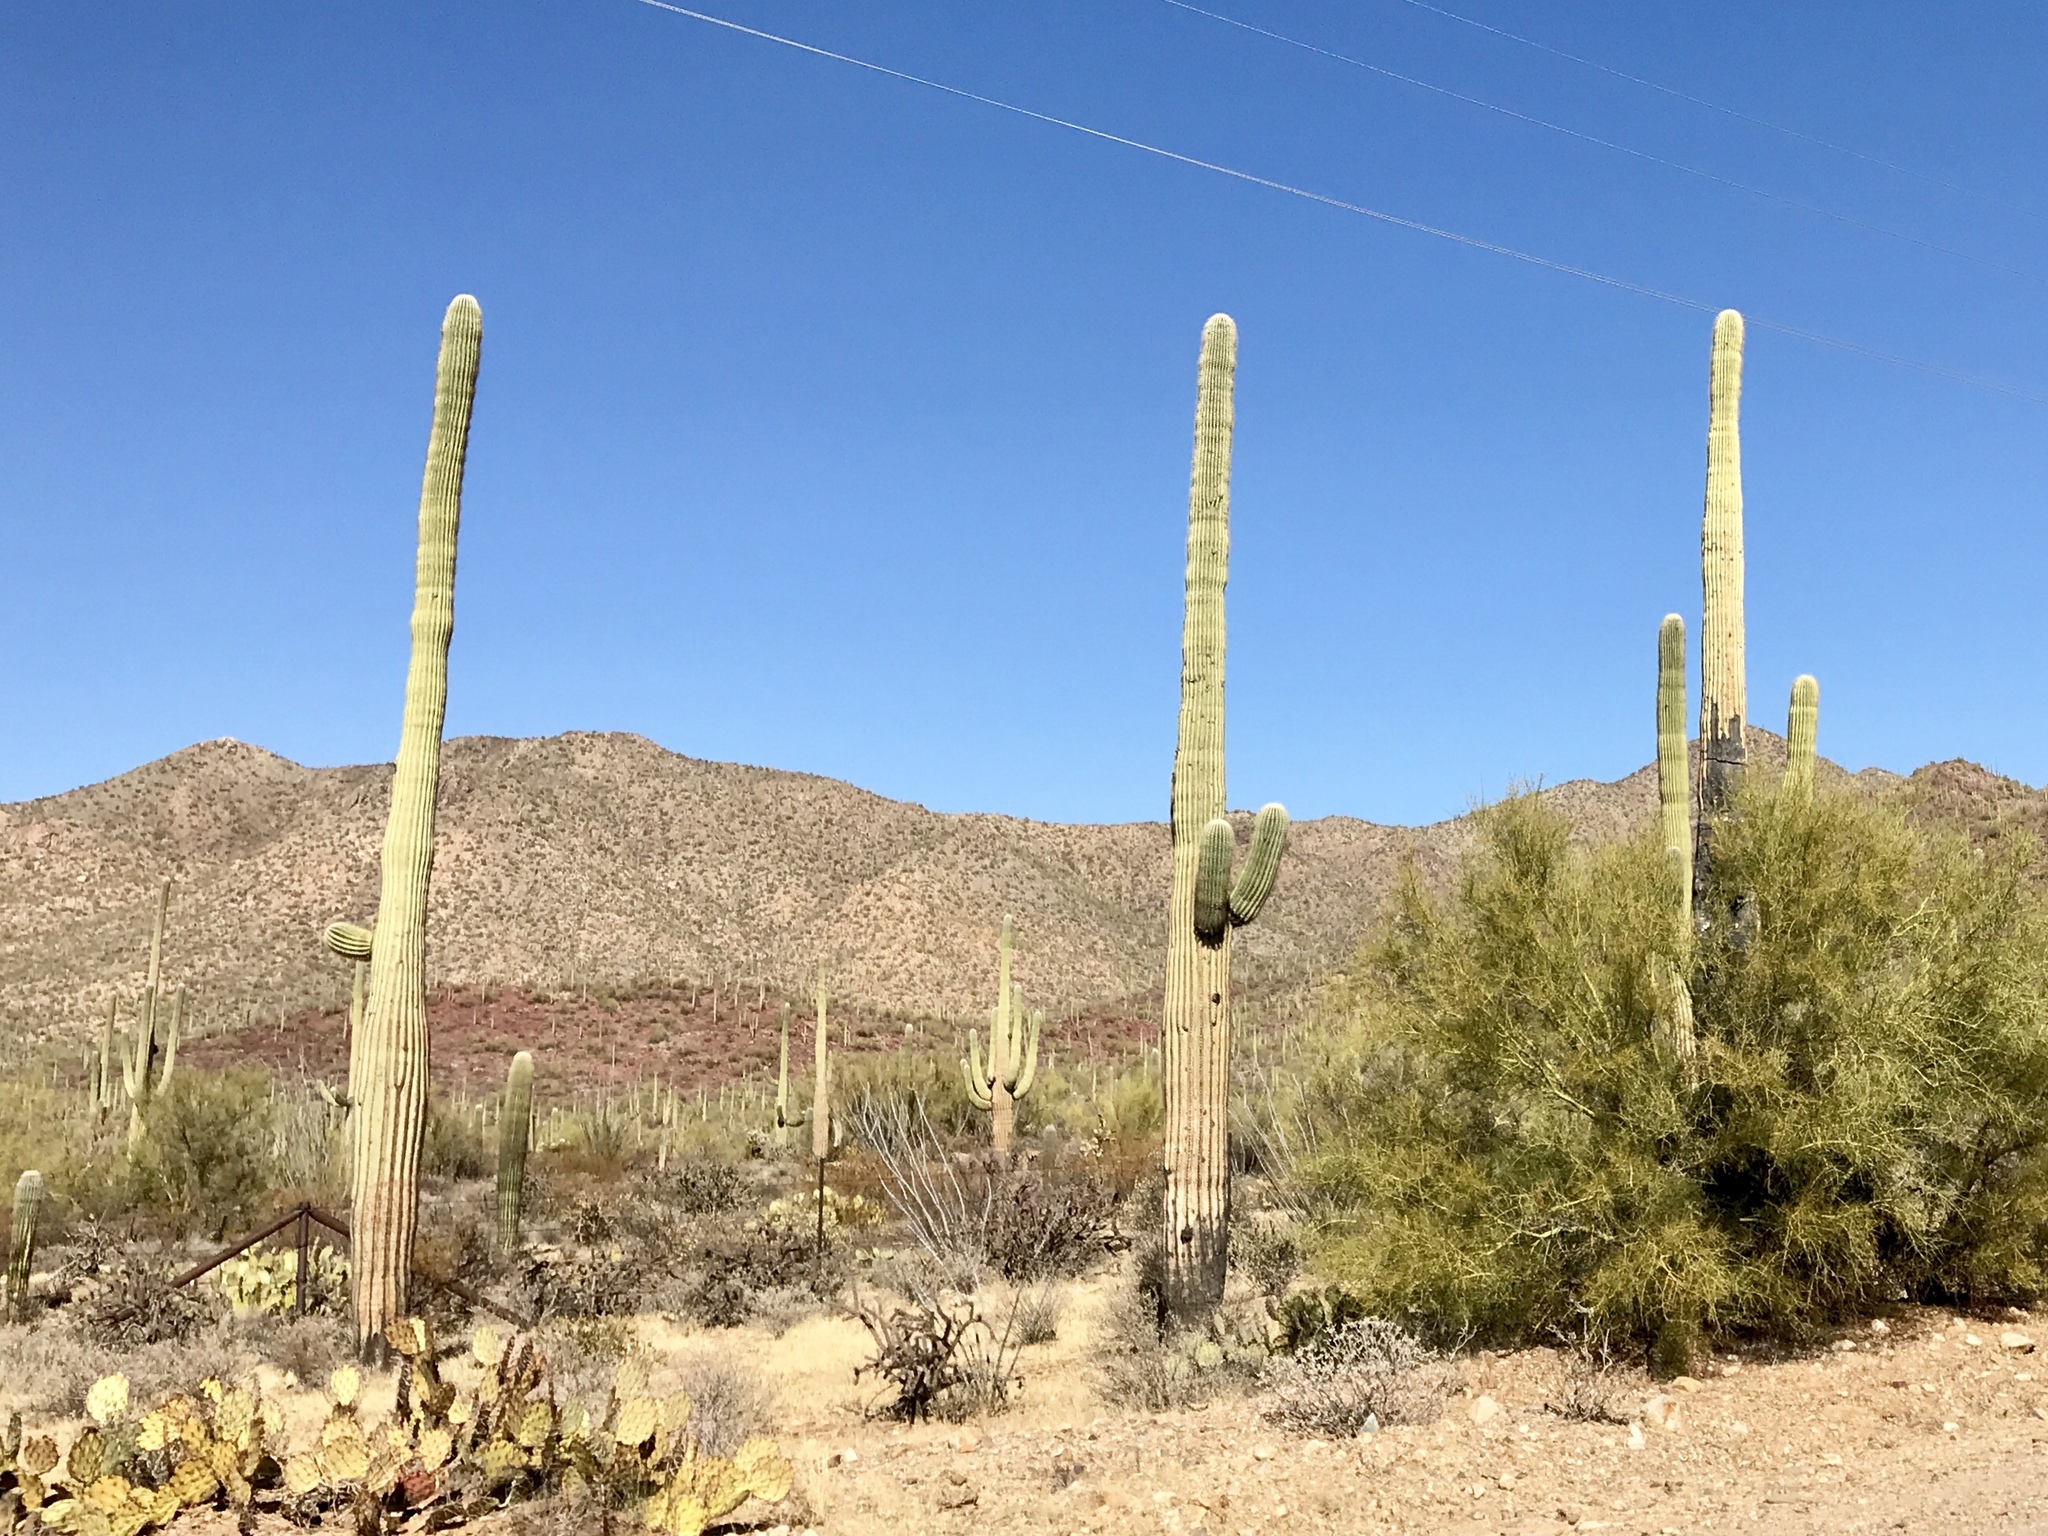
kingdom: Plantae
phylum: Tracheophyta
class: Magnoliopsida
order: Caryophyllales
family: Cactaceae
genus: Carnegiea
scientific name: Carnegiea gigantea
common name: Saguaro
